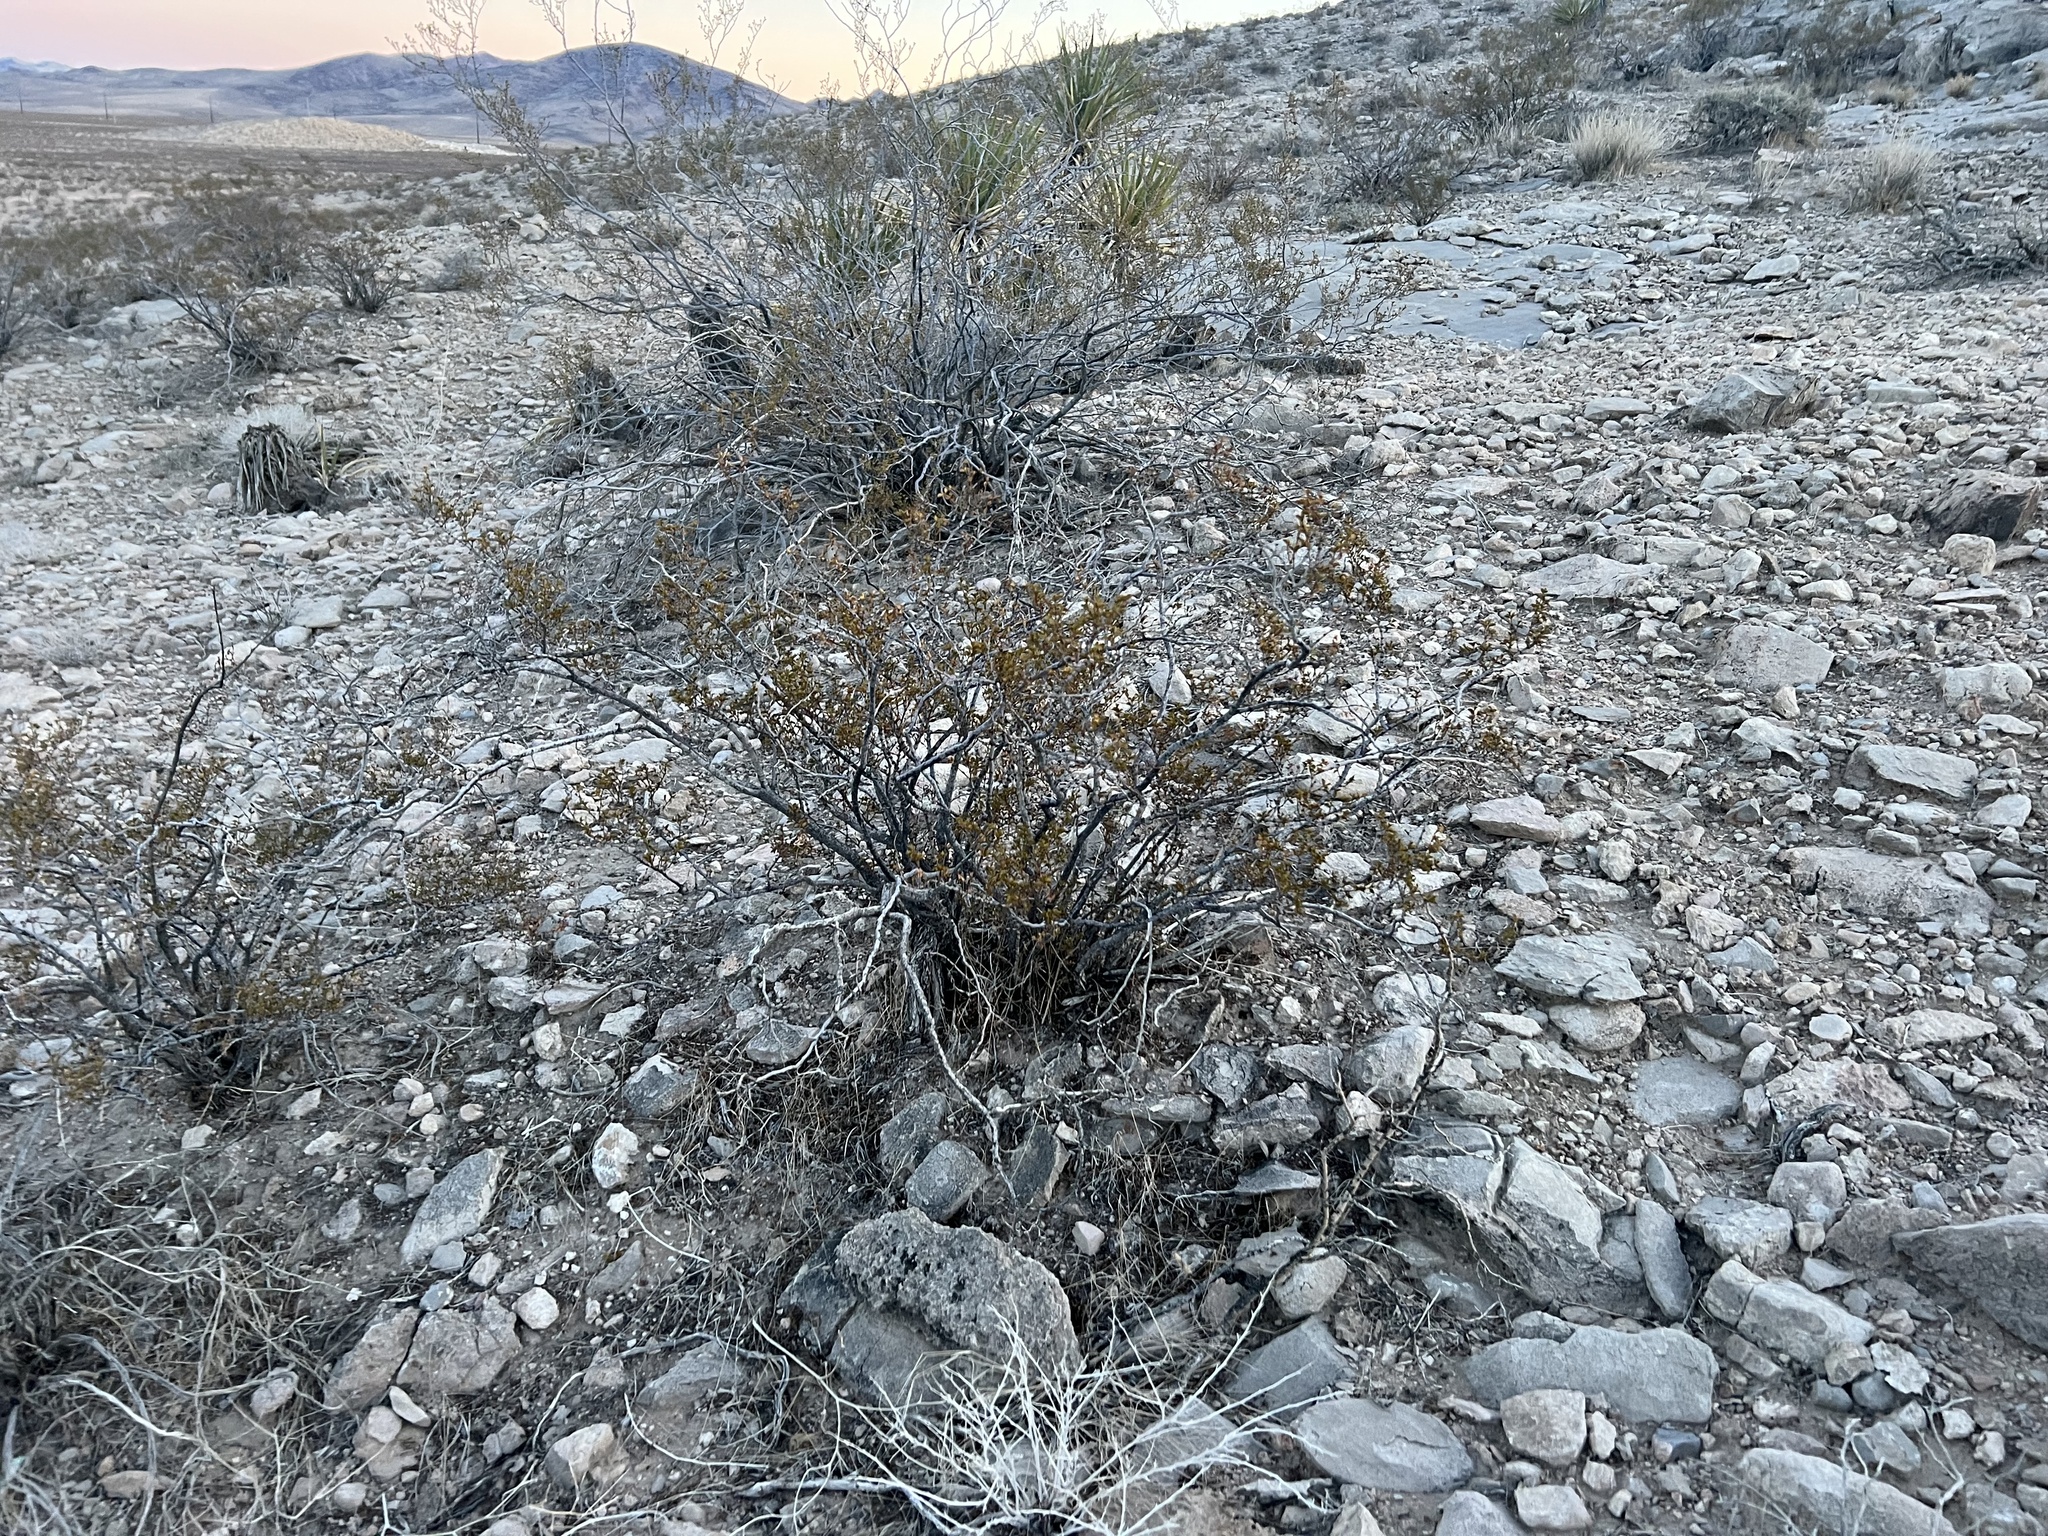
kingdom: Plantae
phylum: Tracheophyta
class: Magnoliopsida
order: Zygophyllales
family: Zygophyllaceae
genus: Larrea
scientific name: Larrea tridentata
